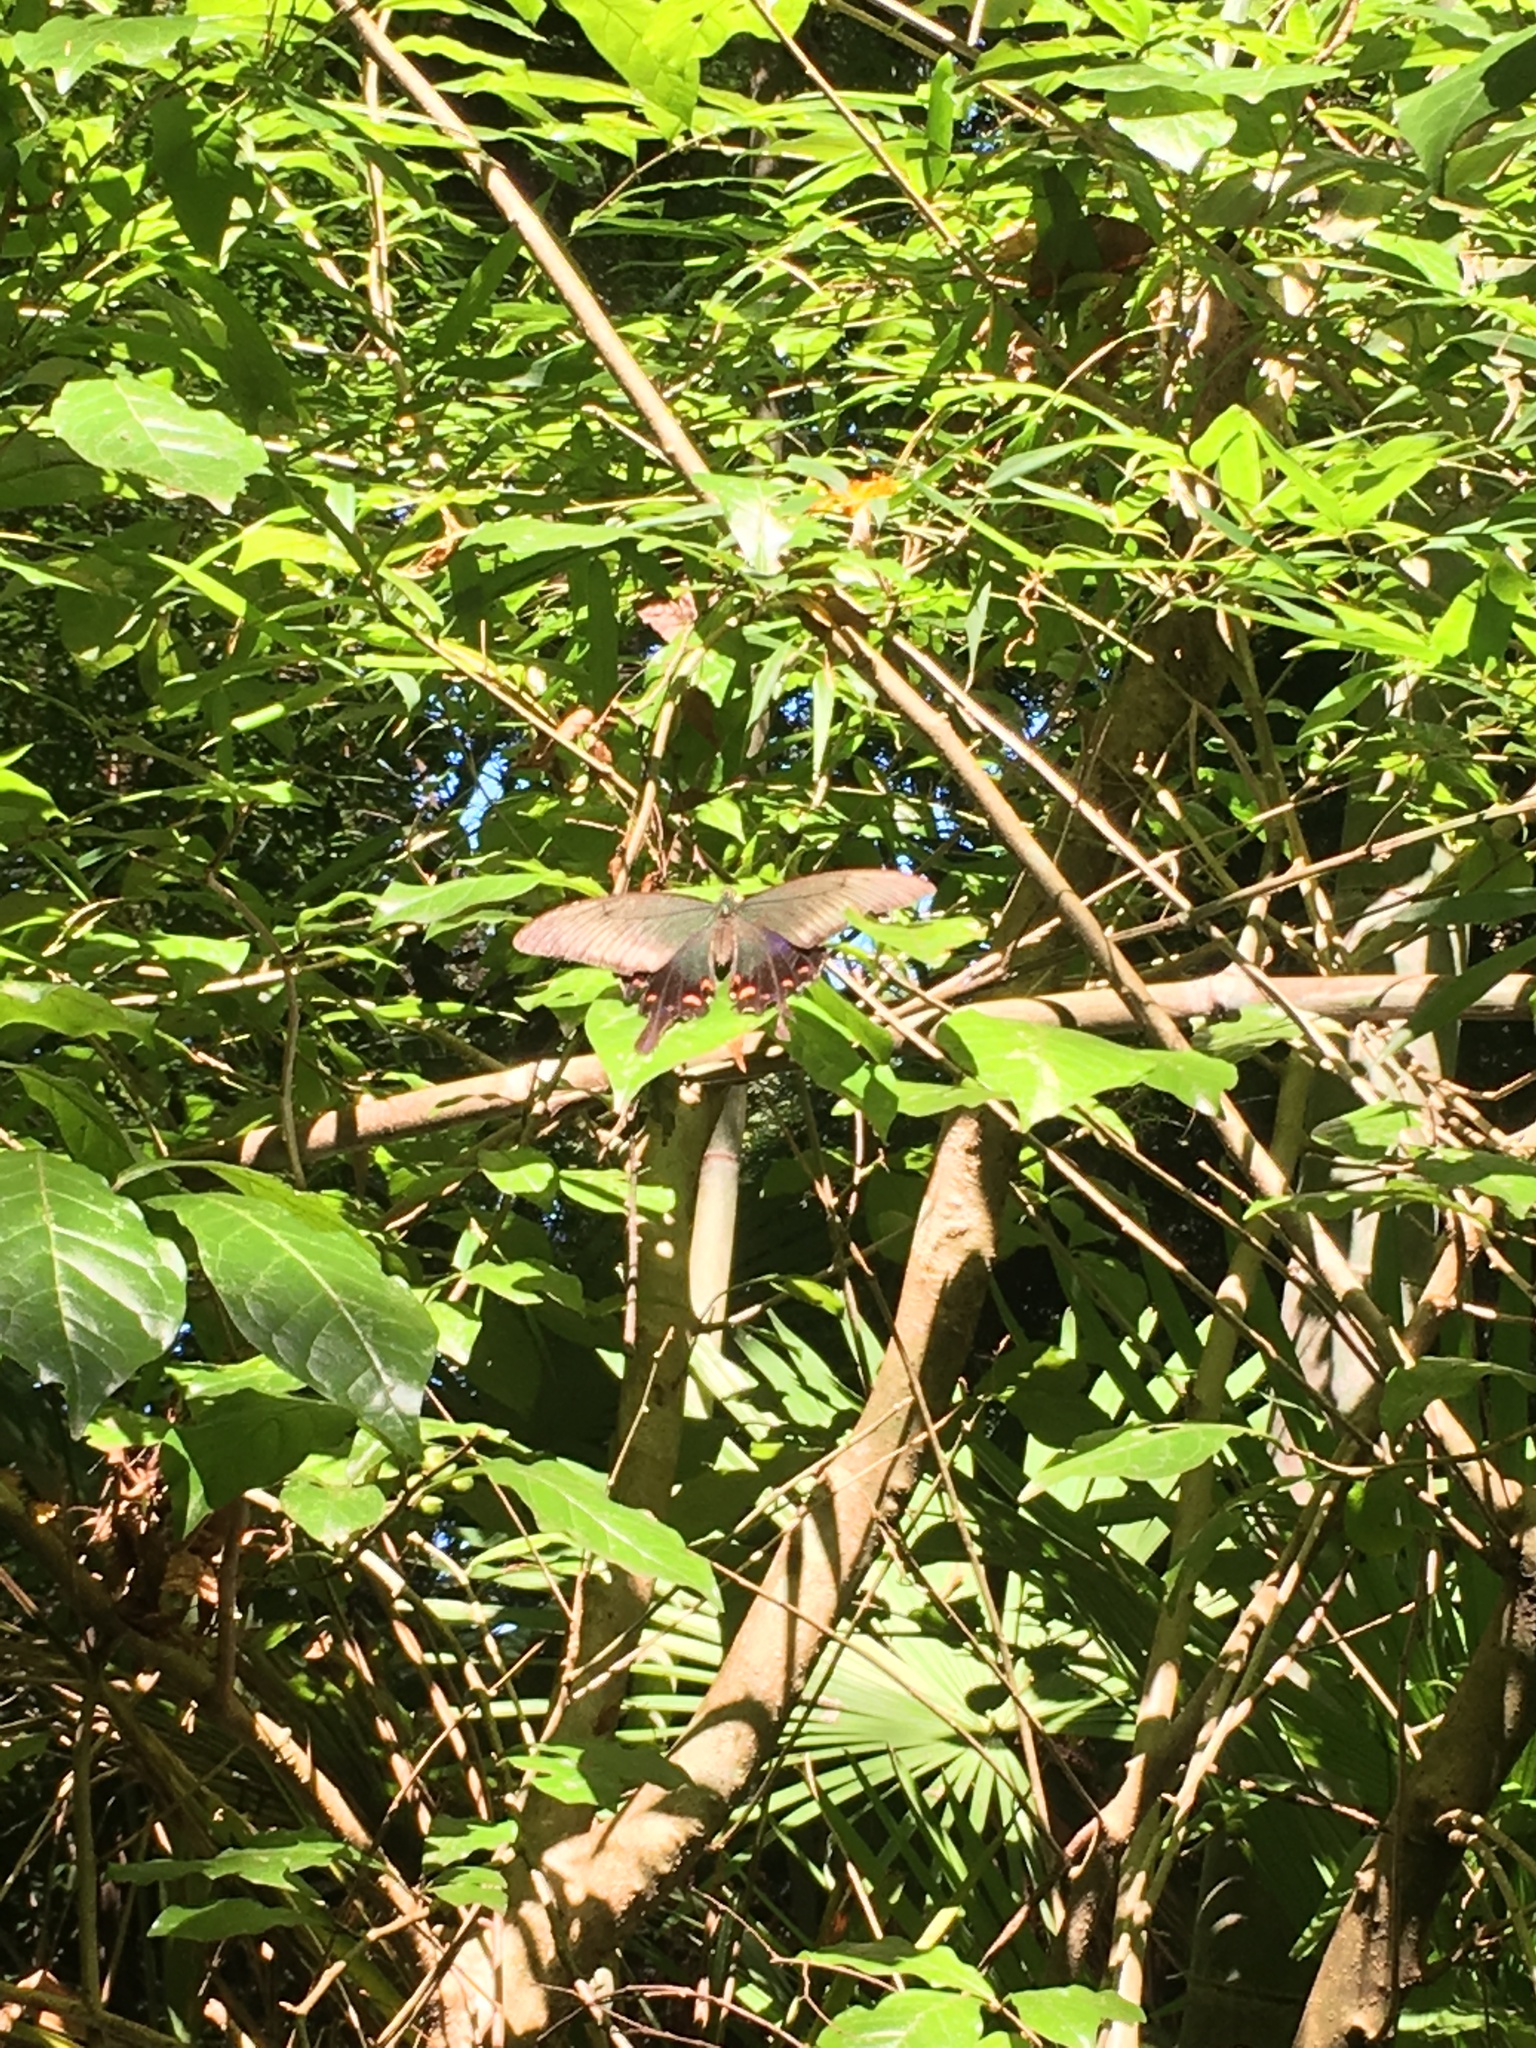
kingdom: Animalia
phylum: Arthropoda
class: Insecta
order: Lepidoptera
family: Papilionidae
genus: Papilio
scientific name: Papilio dehaanii
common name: Japanese peacock swallowtail
